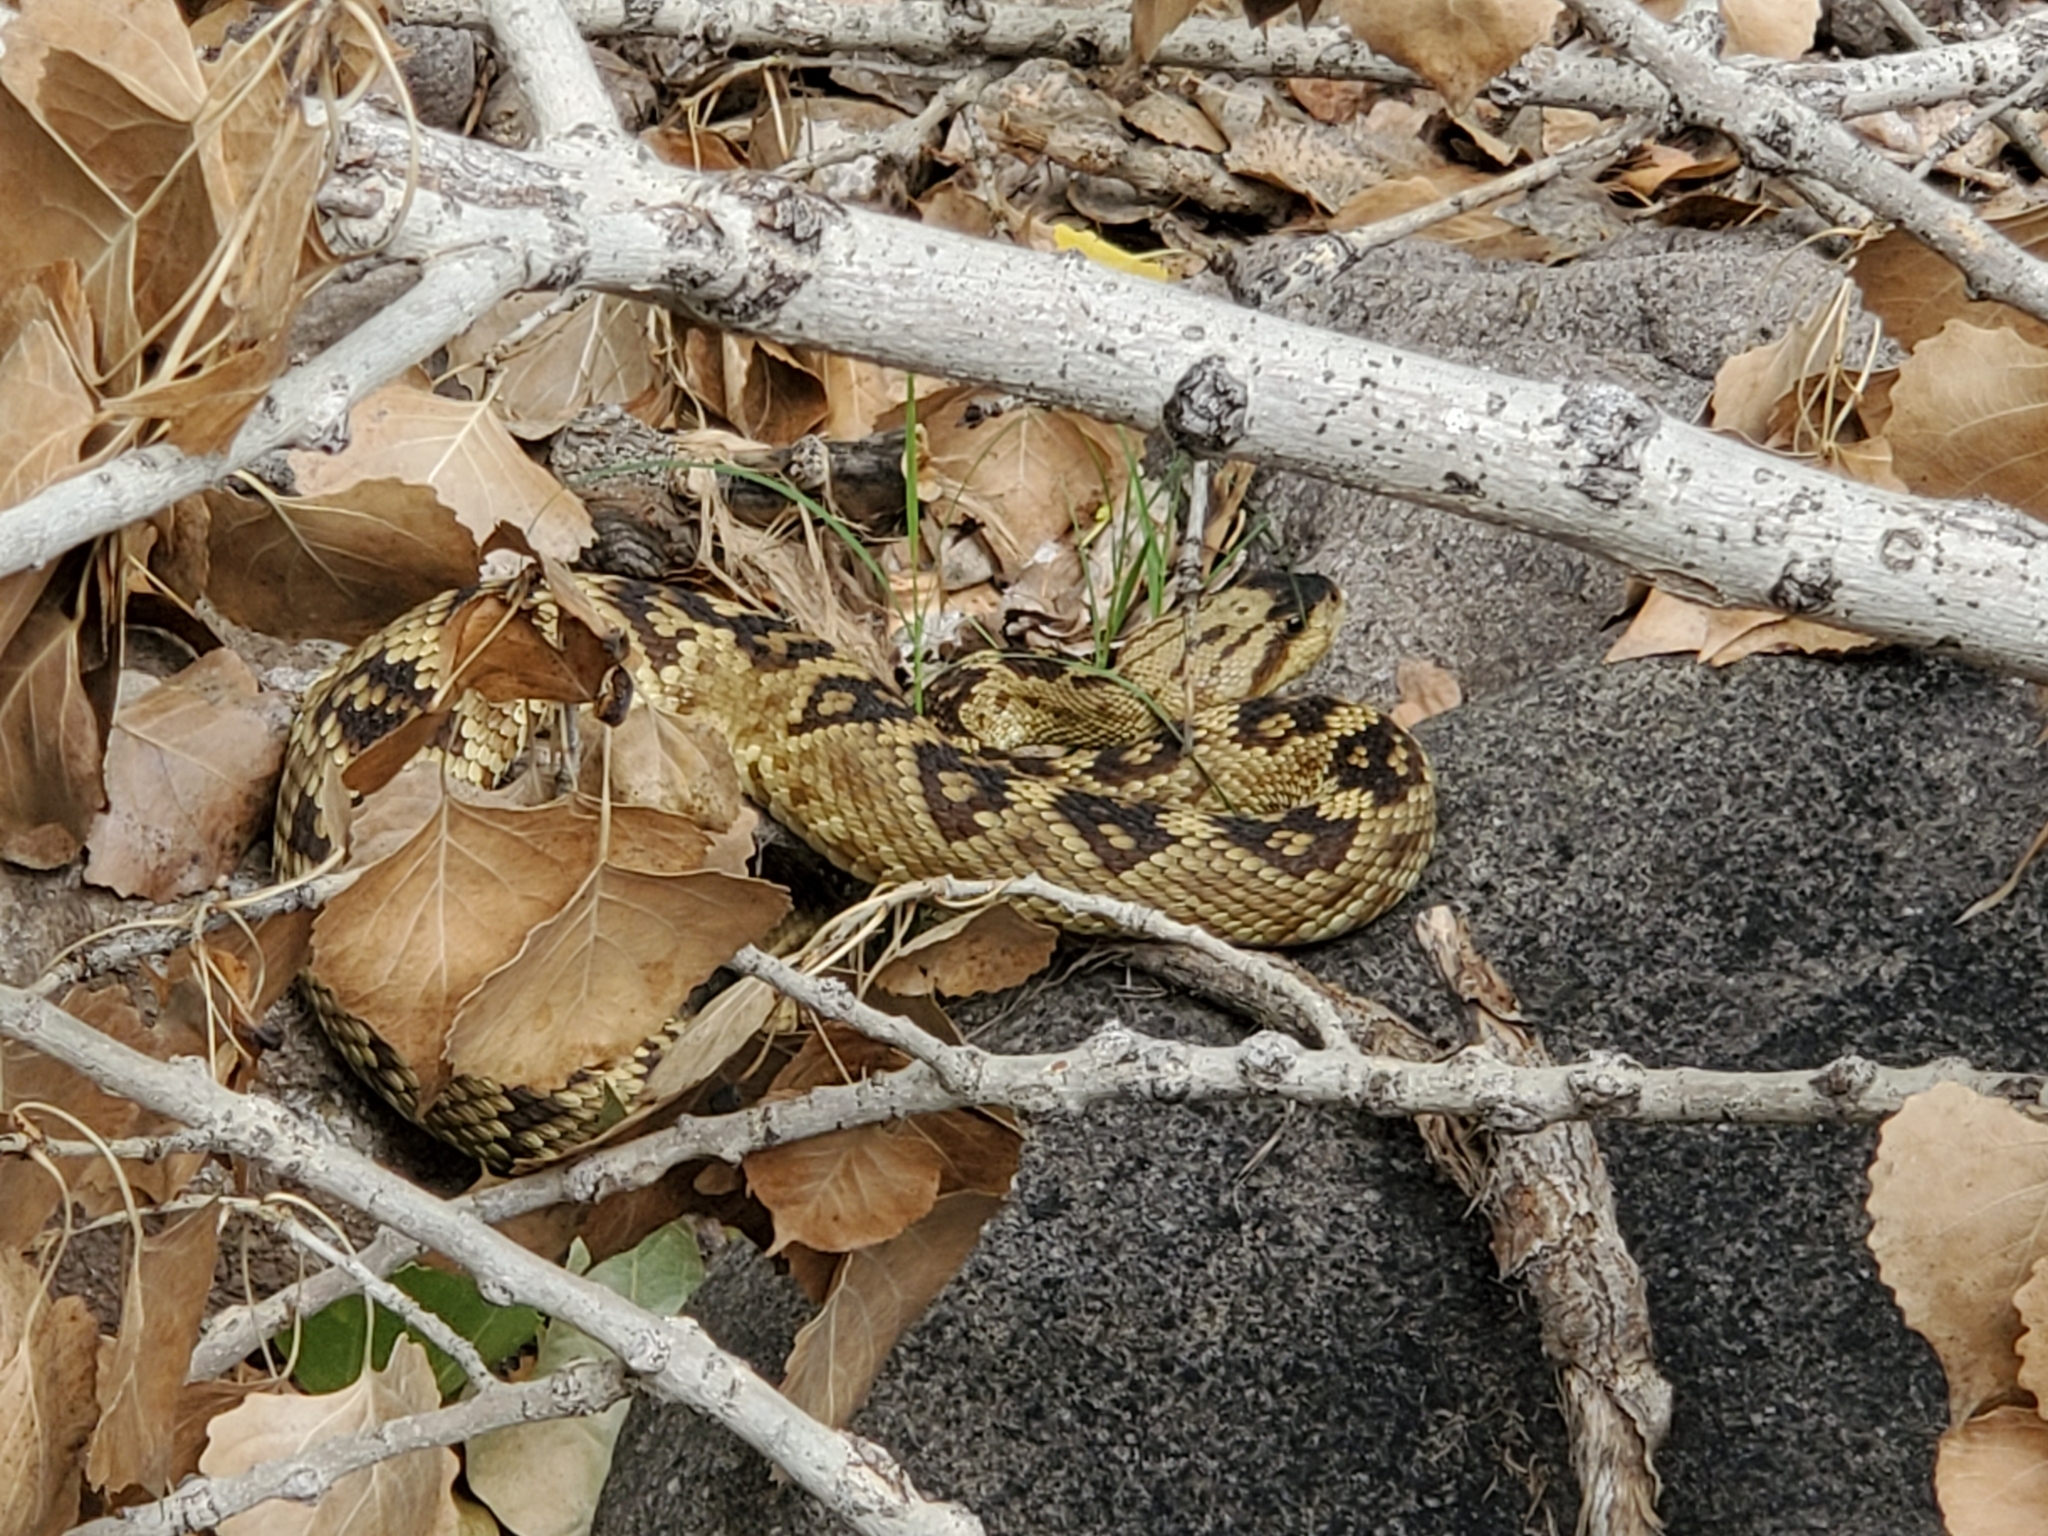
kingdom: Animalia
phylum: Chordata
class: Squamata
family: Viperidae
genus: Crotalus
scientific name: Crotalus molossus
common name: Black tailed rattlesnake
